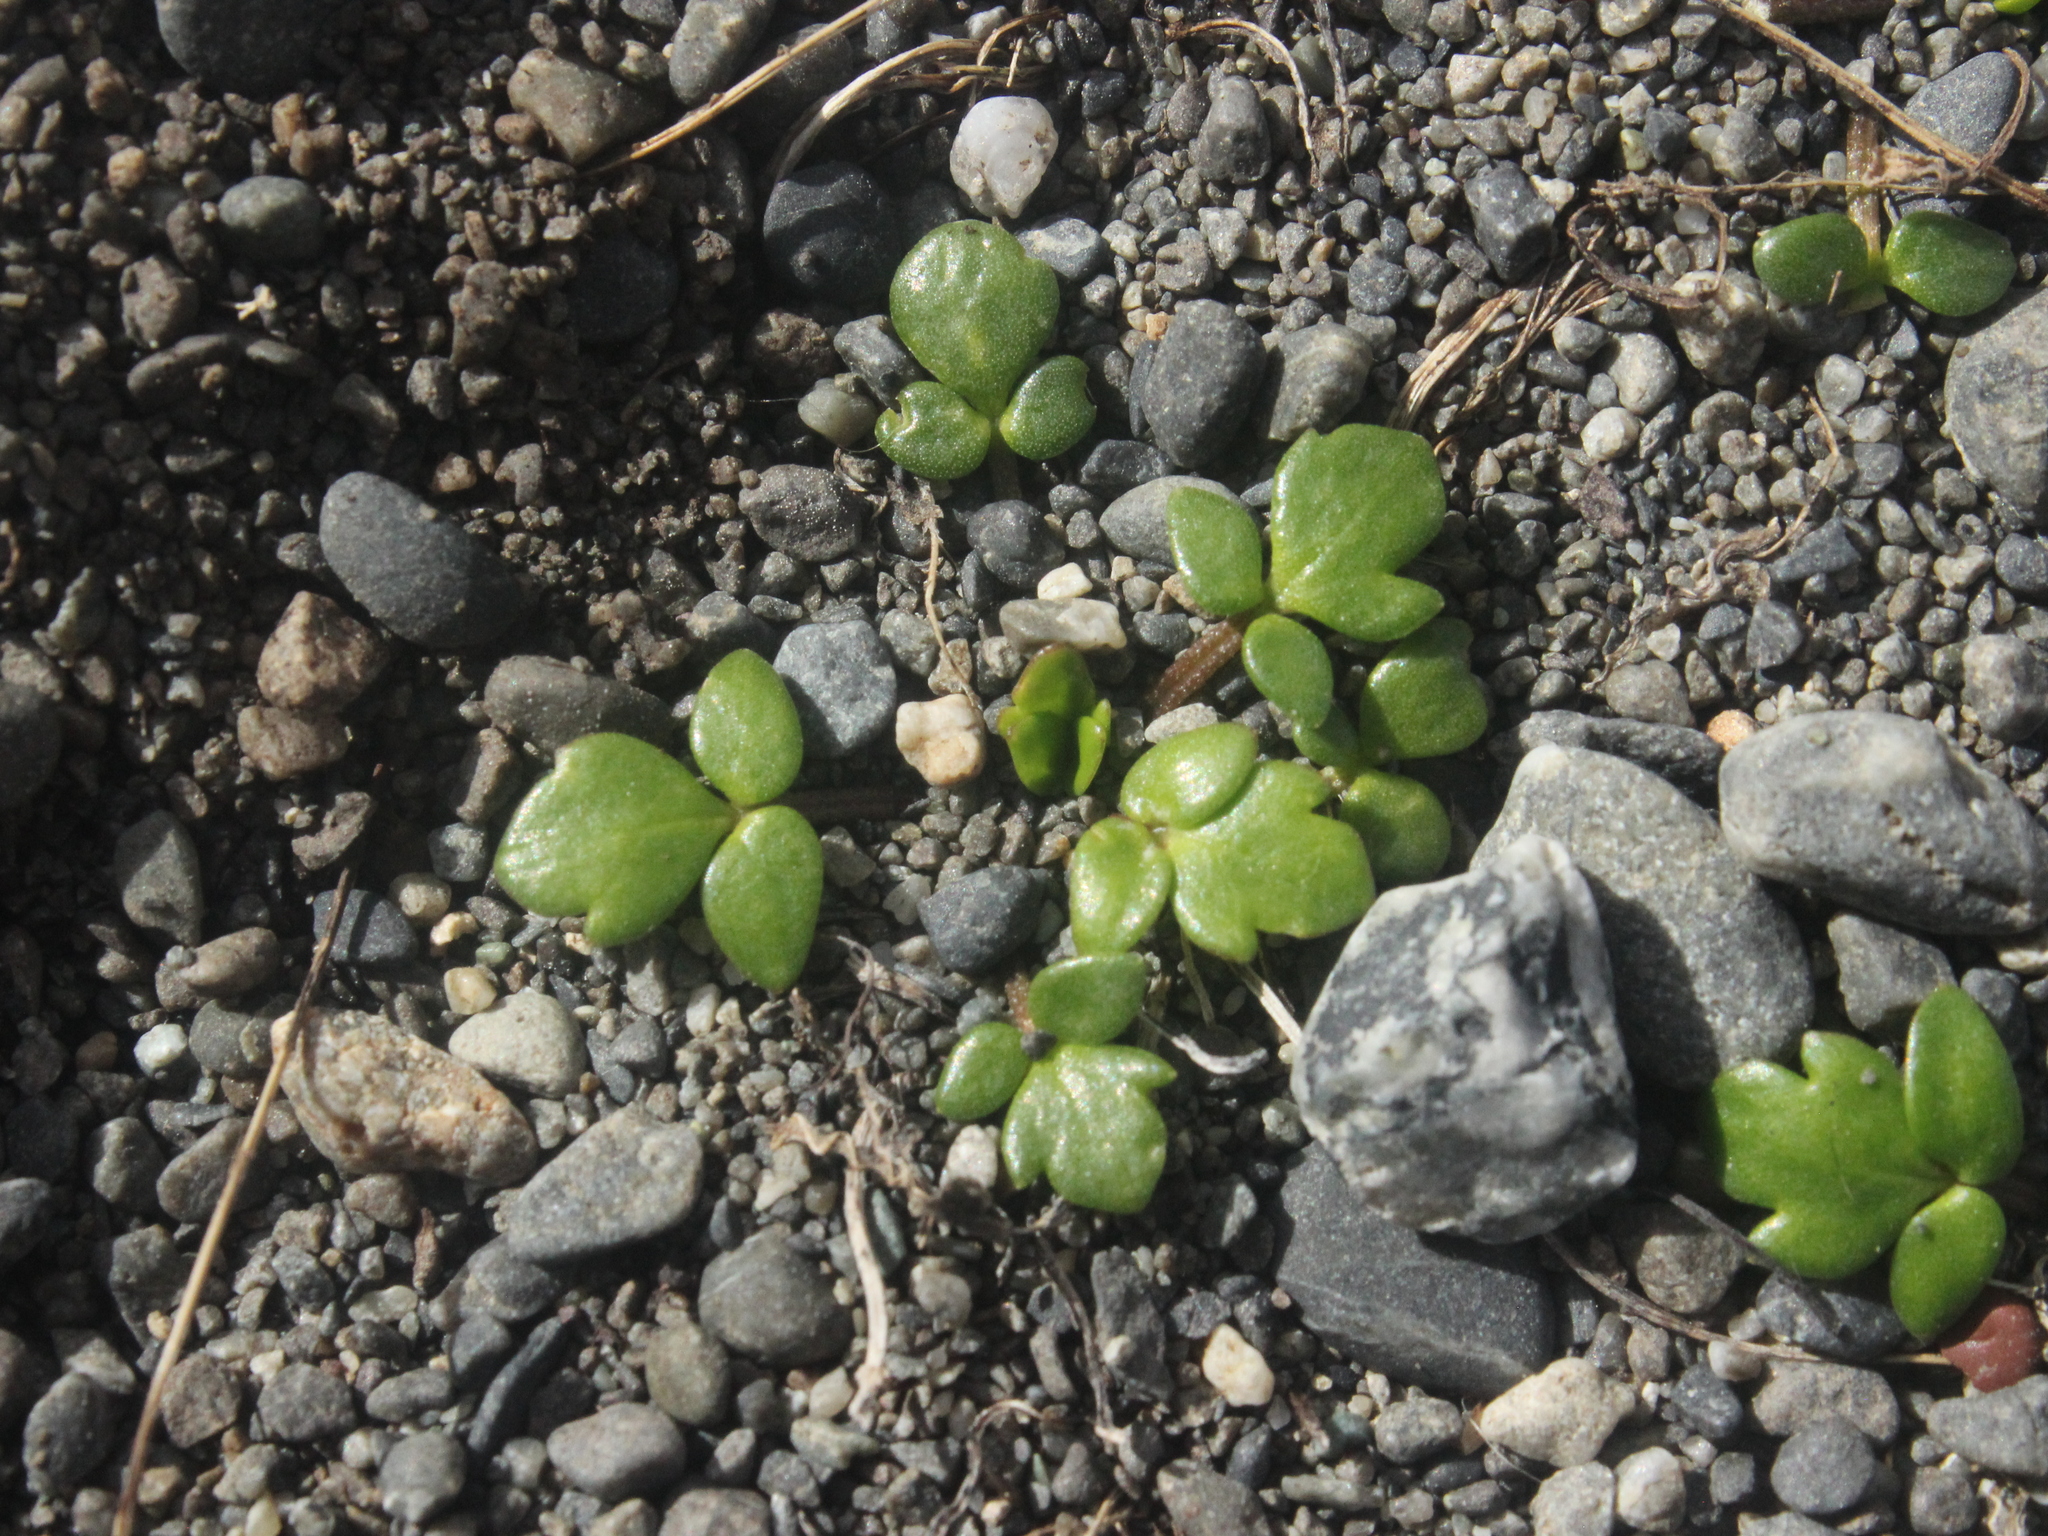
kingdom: Plantae
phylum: Tracheophyta
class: Magnoliopsida
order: Ranunculales
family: Ranunculaceae
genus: Ranunculus
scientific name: Ranunculus acaulis
